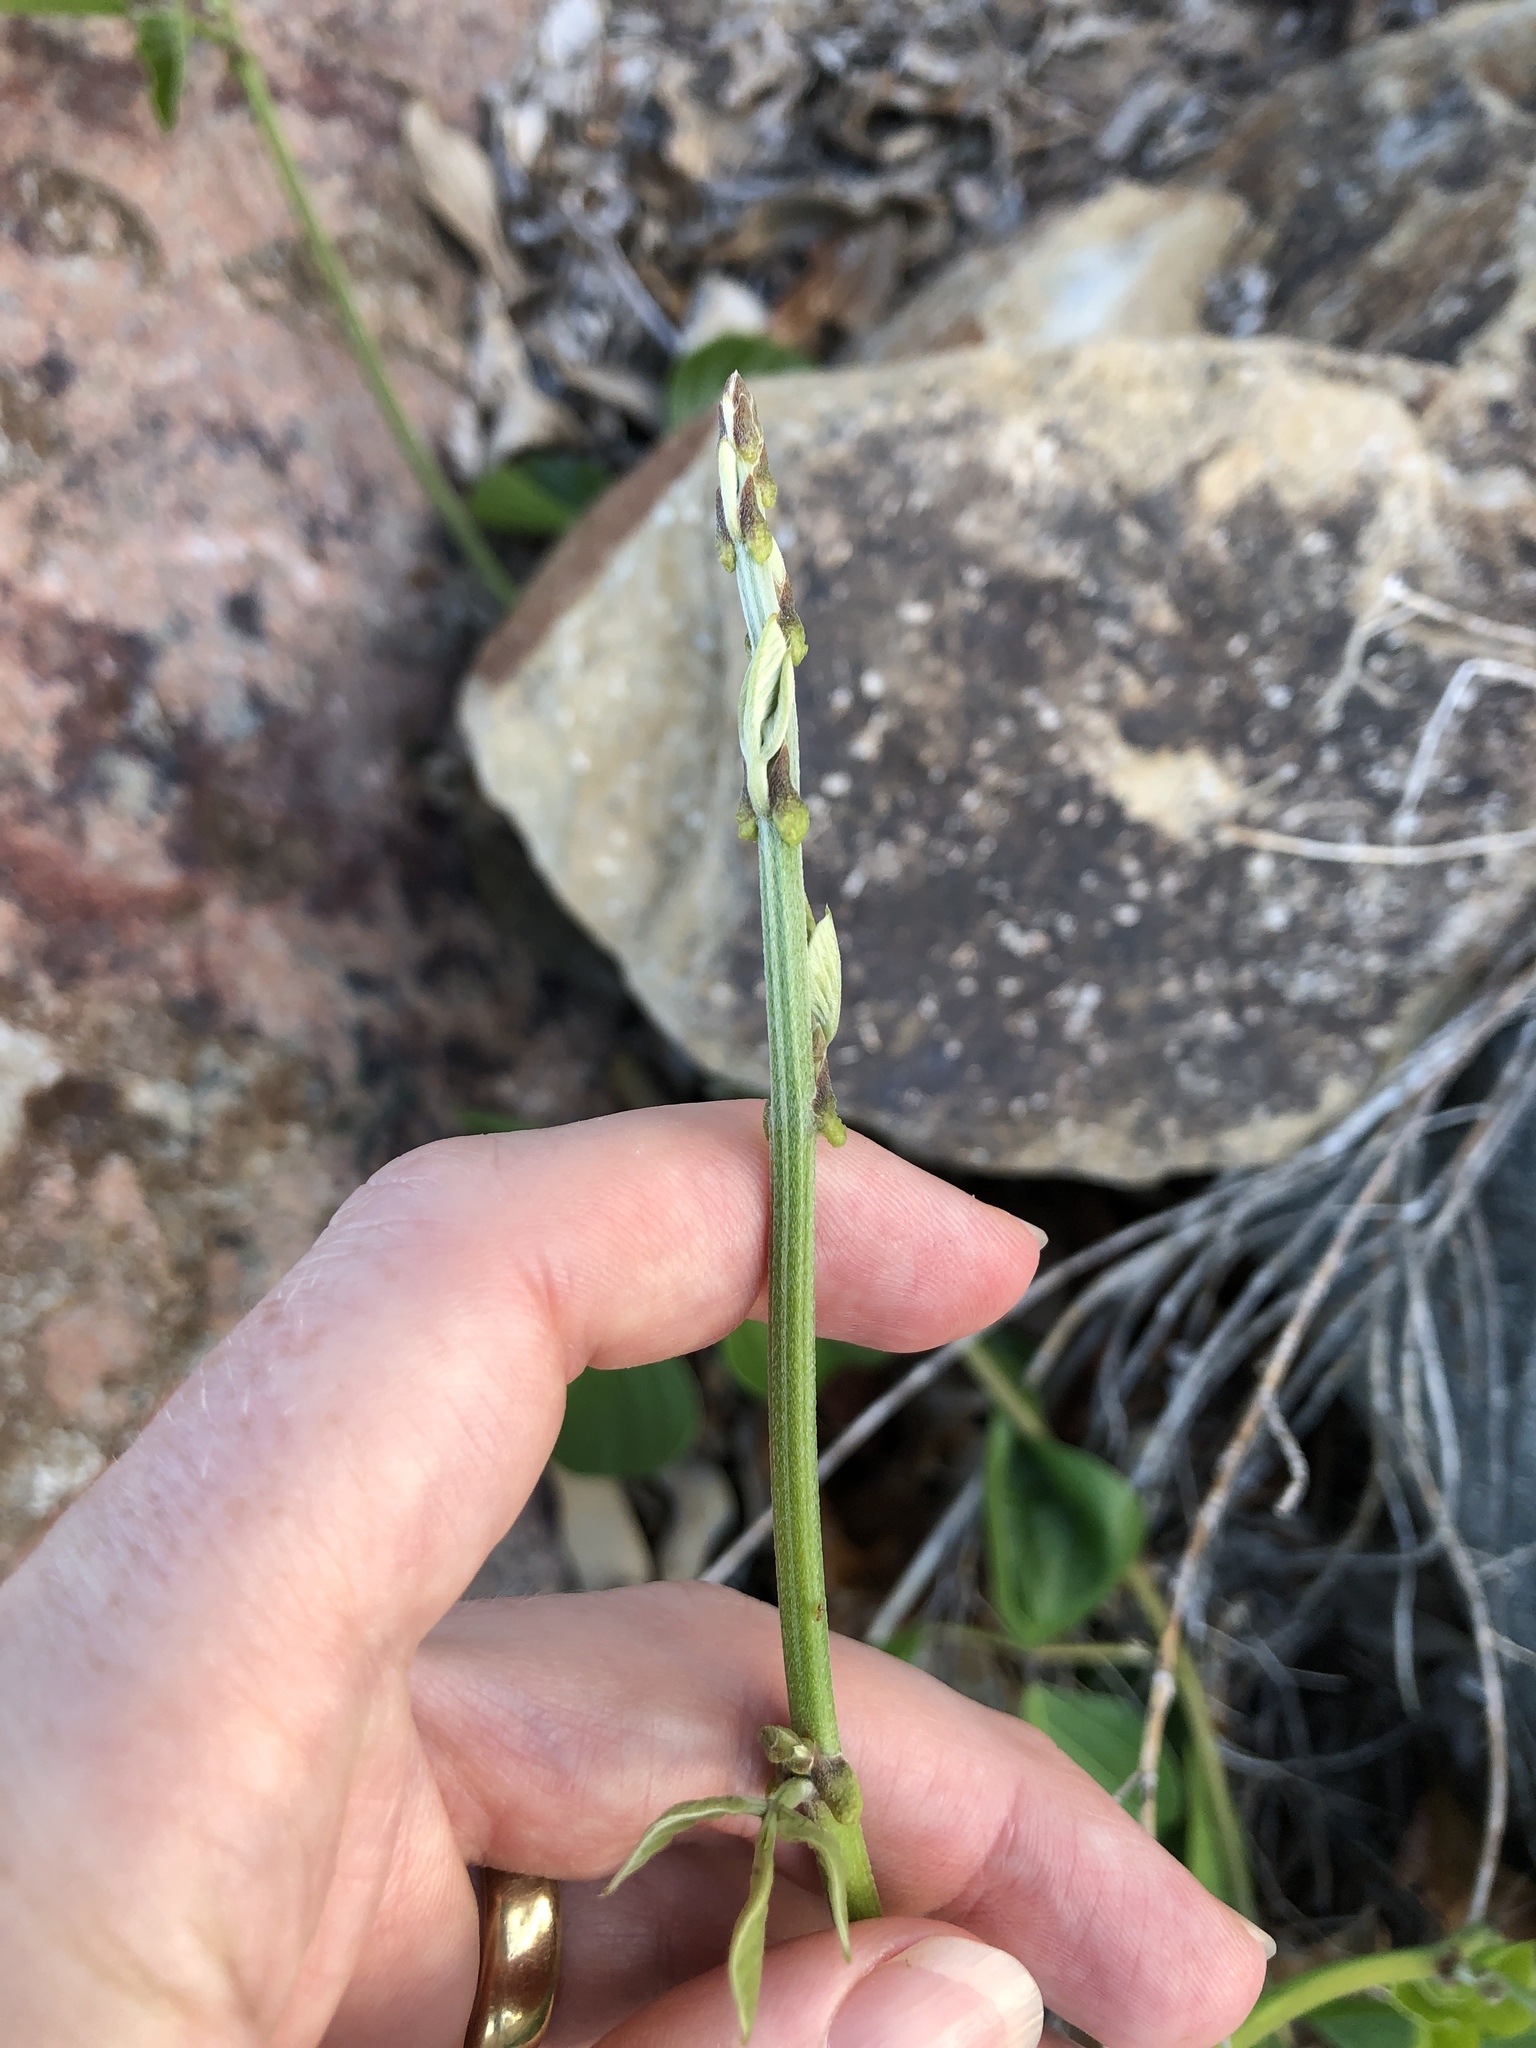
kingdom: Plantae
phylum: Tracheophyta
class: Magnoliopsida
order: Fabales
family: Fabaceae
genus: Canavalia
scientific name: Canavalia rosea
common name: Beach-bean
